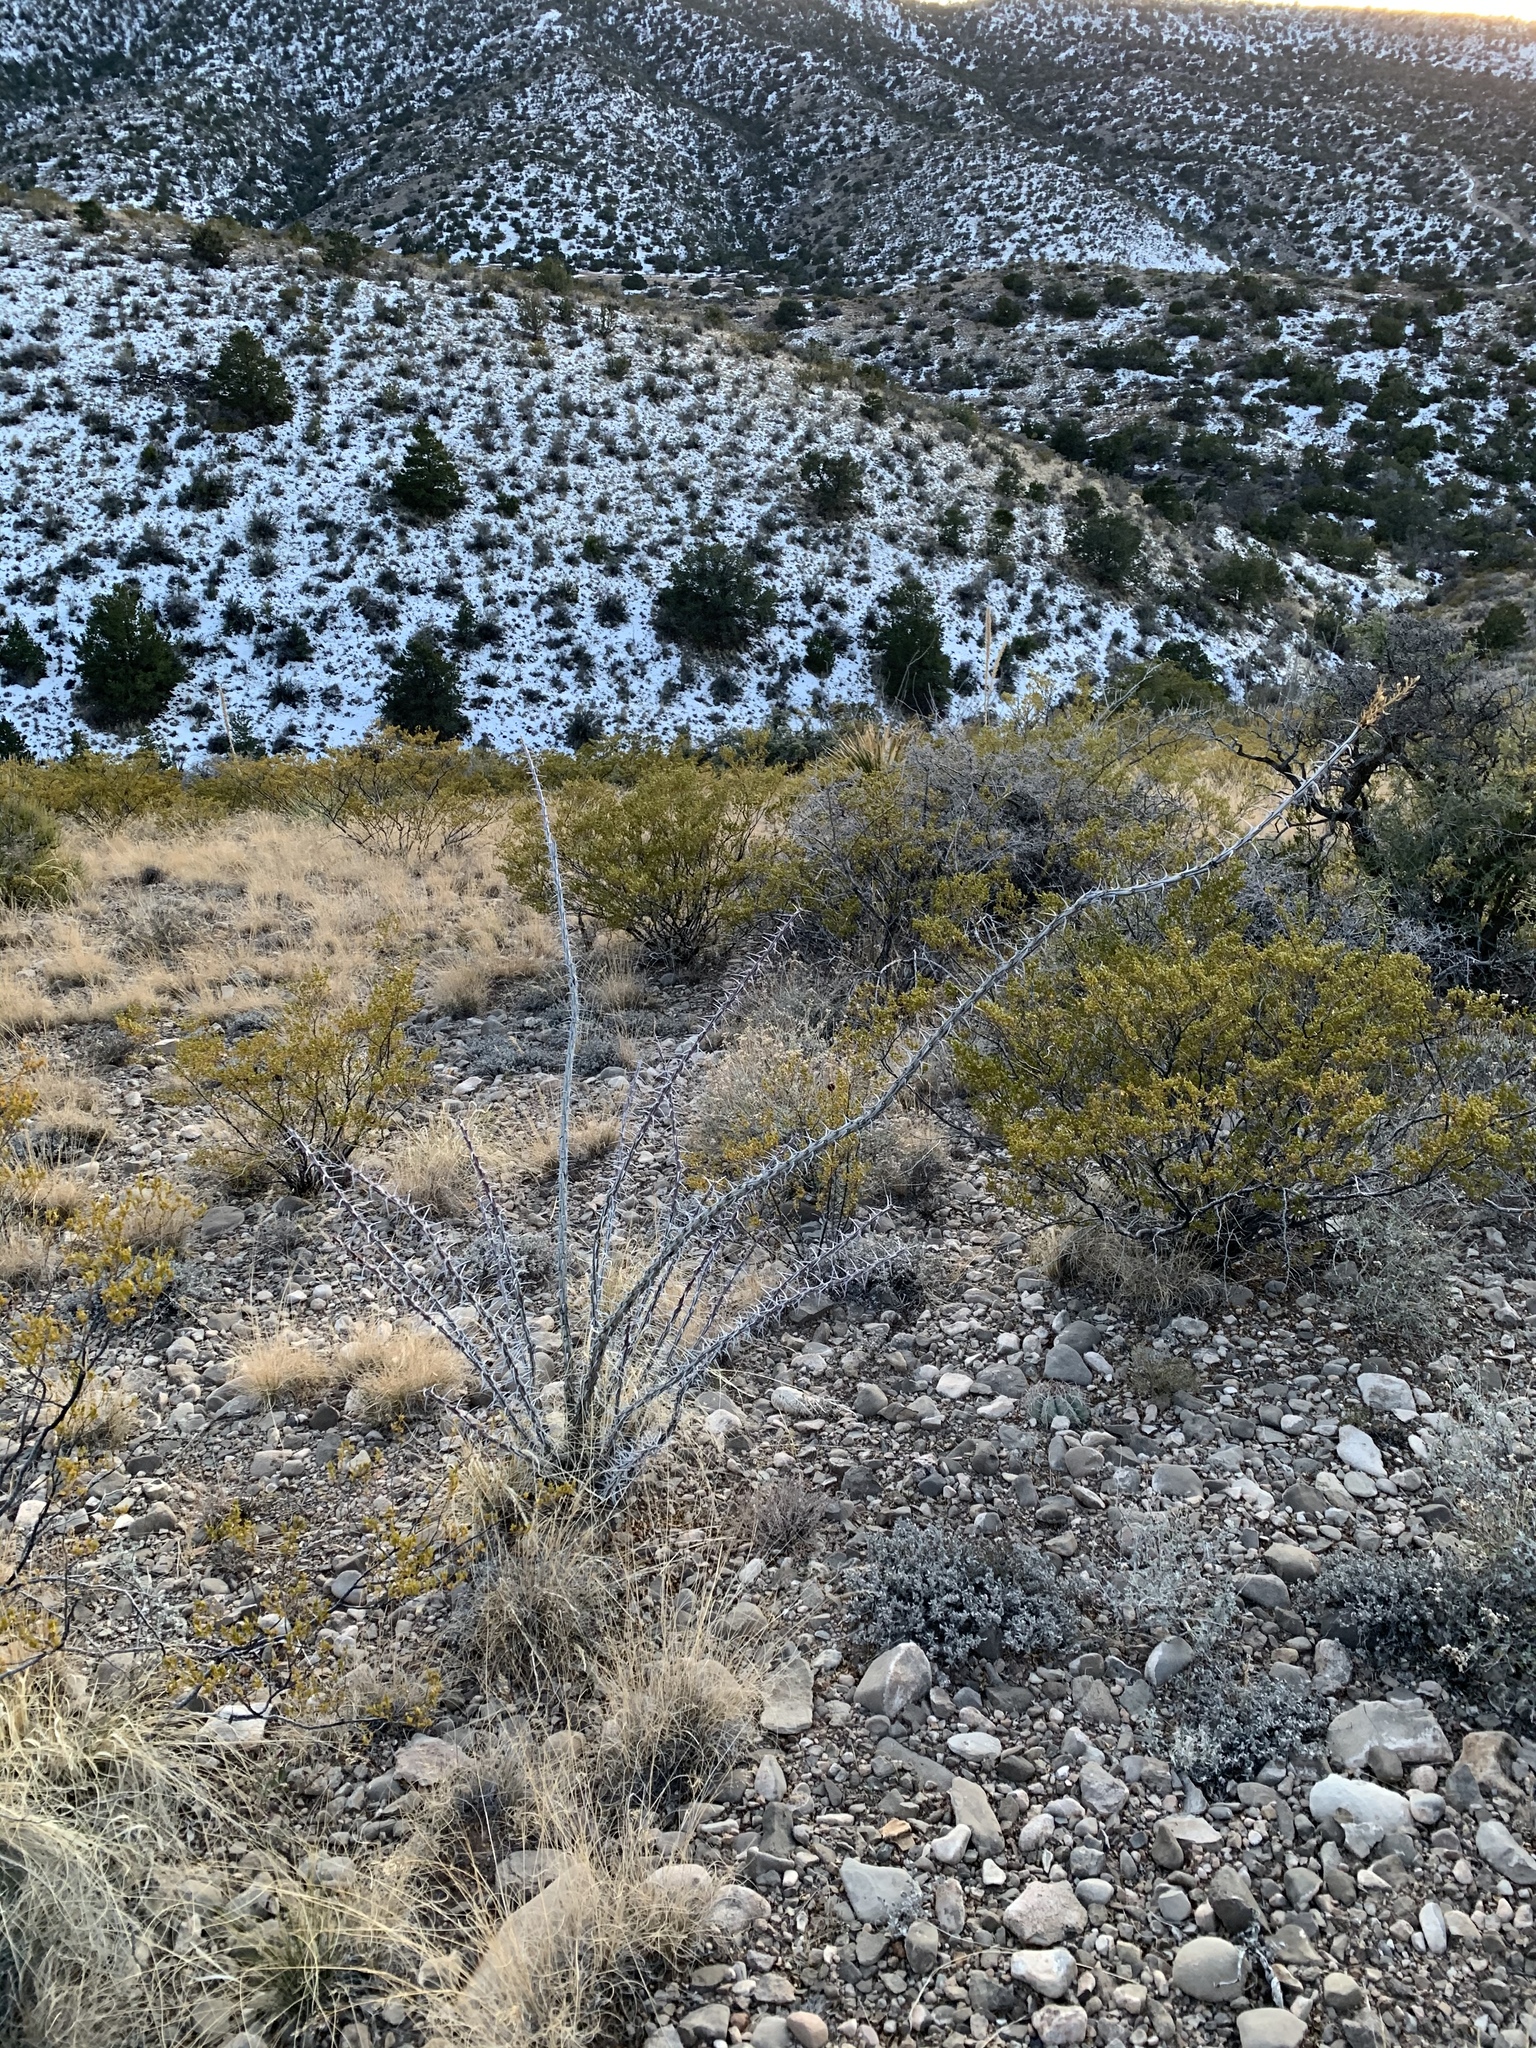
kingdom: Plantae
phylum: Tracheophyta
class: Magnoliopsida
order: Ericales
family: Fouquieriaceae
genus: Fouquieria
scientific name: Fouquieria splendens
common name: Vine-cactus
